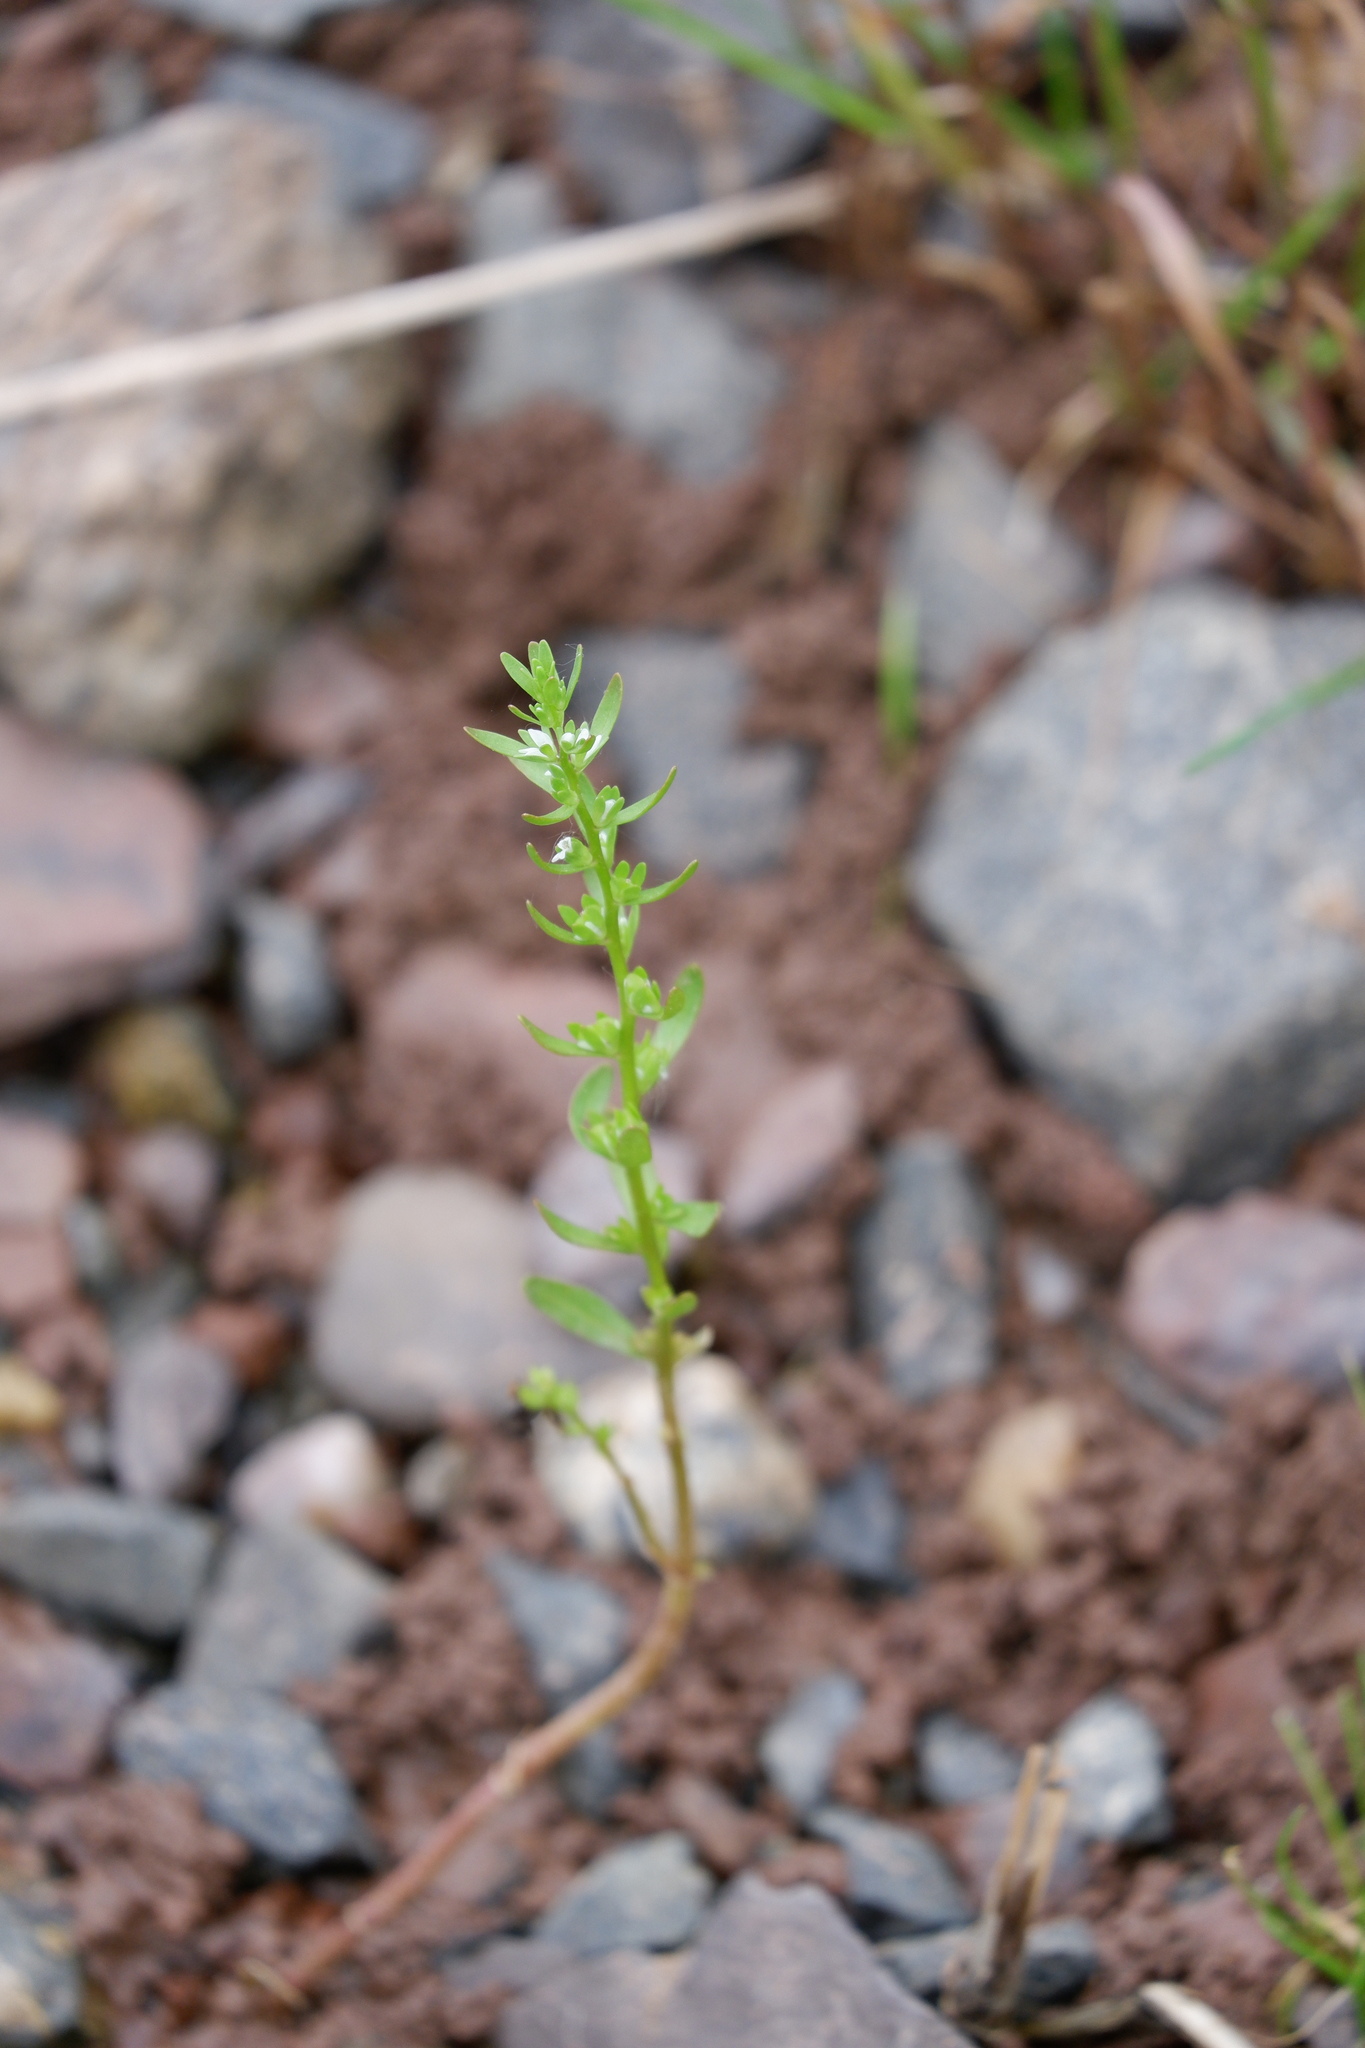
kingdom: Plantae
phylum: Tracheophyta
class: Magnoliopsida
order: Lamiales
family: Plantaginaceae
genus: Veronica
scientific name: Veronica peregrina
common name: Neckweed
